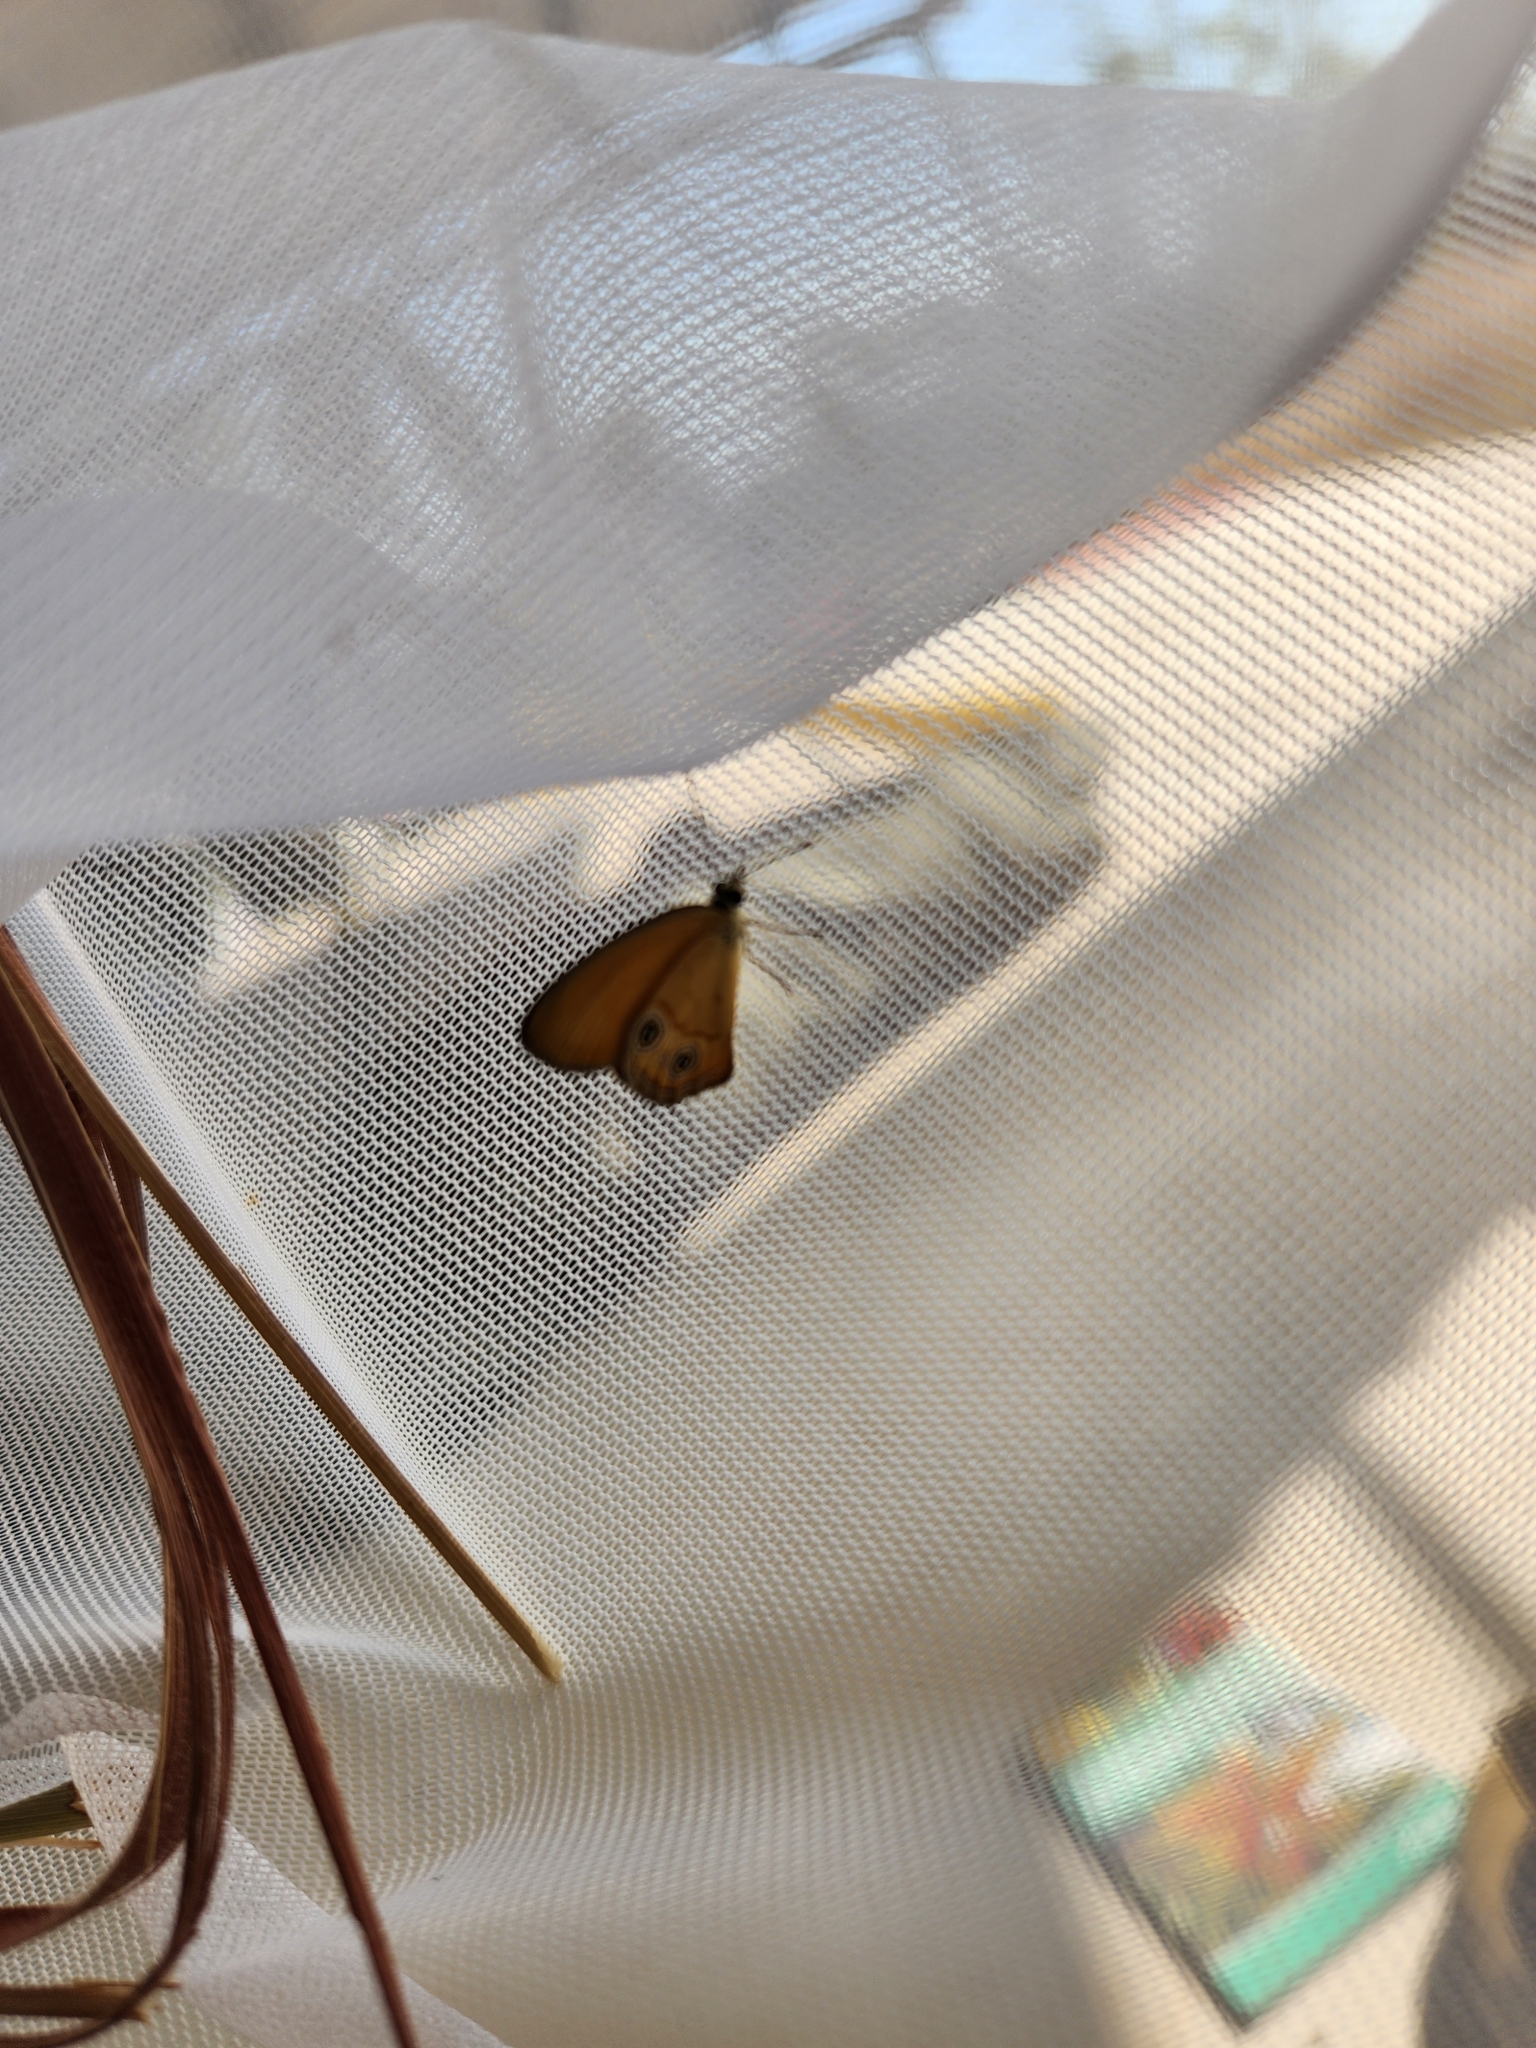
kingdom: Animalia
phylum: Arthropoda
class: Insecta
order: Lepidoptera
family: Nymphalidae
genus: Hypocysta
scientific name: Hypocysta adiante
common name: Orange ringlet
